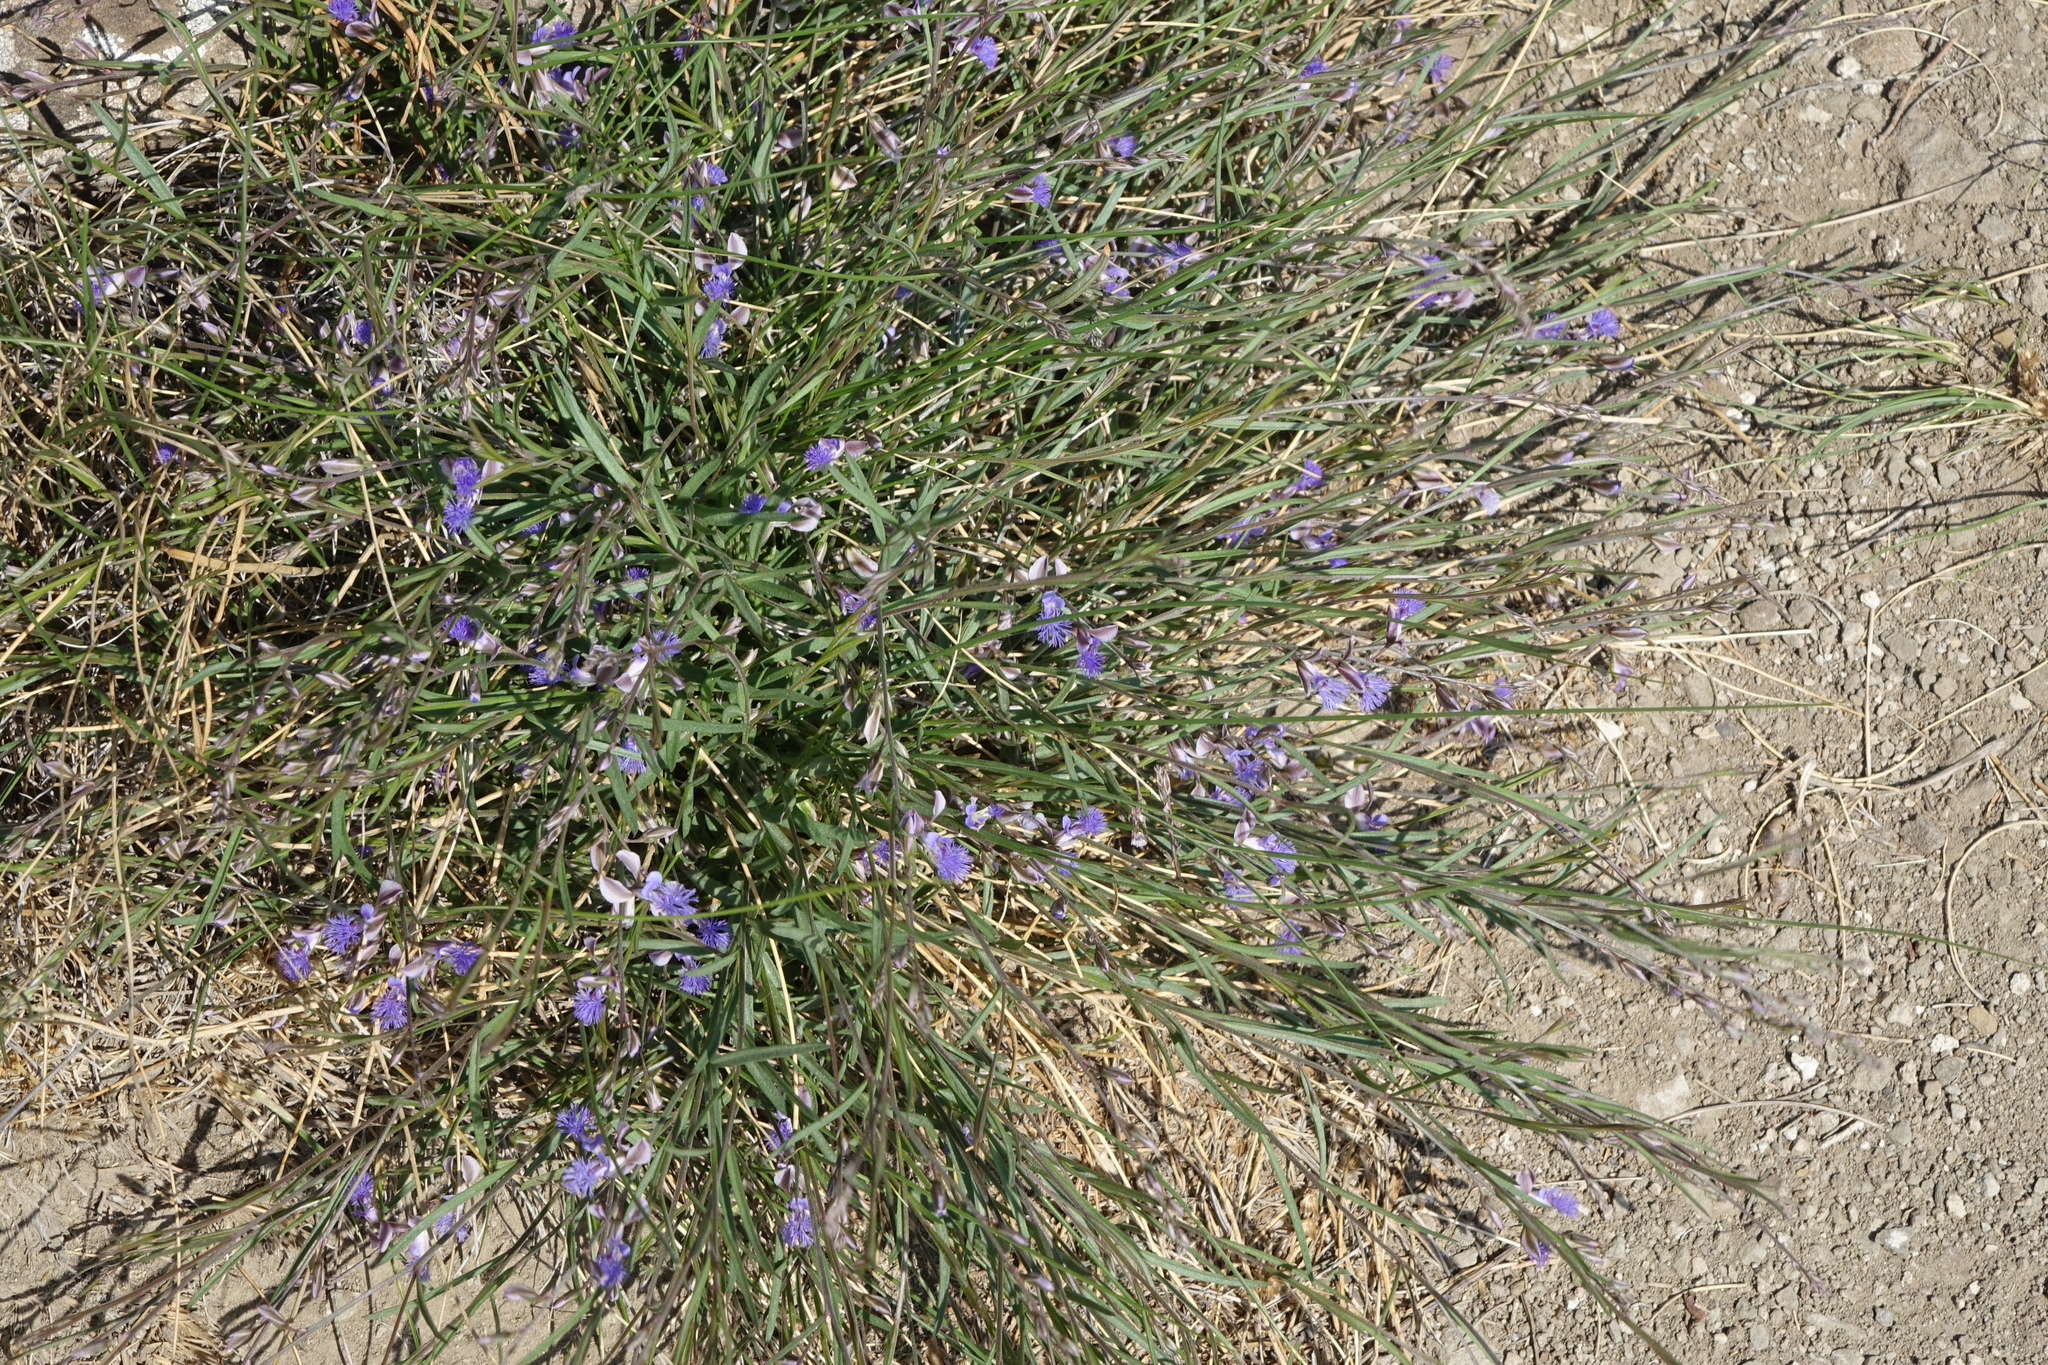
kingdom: Plantae
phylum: Tracheophyta
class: Magnoliopsida
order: Fabales
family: Polygalaceae
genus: Polygala
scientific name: Polygala tenuifolia
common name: Chinese senega-root
